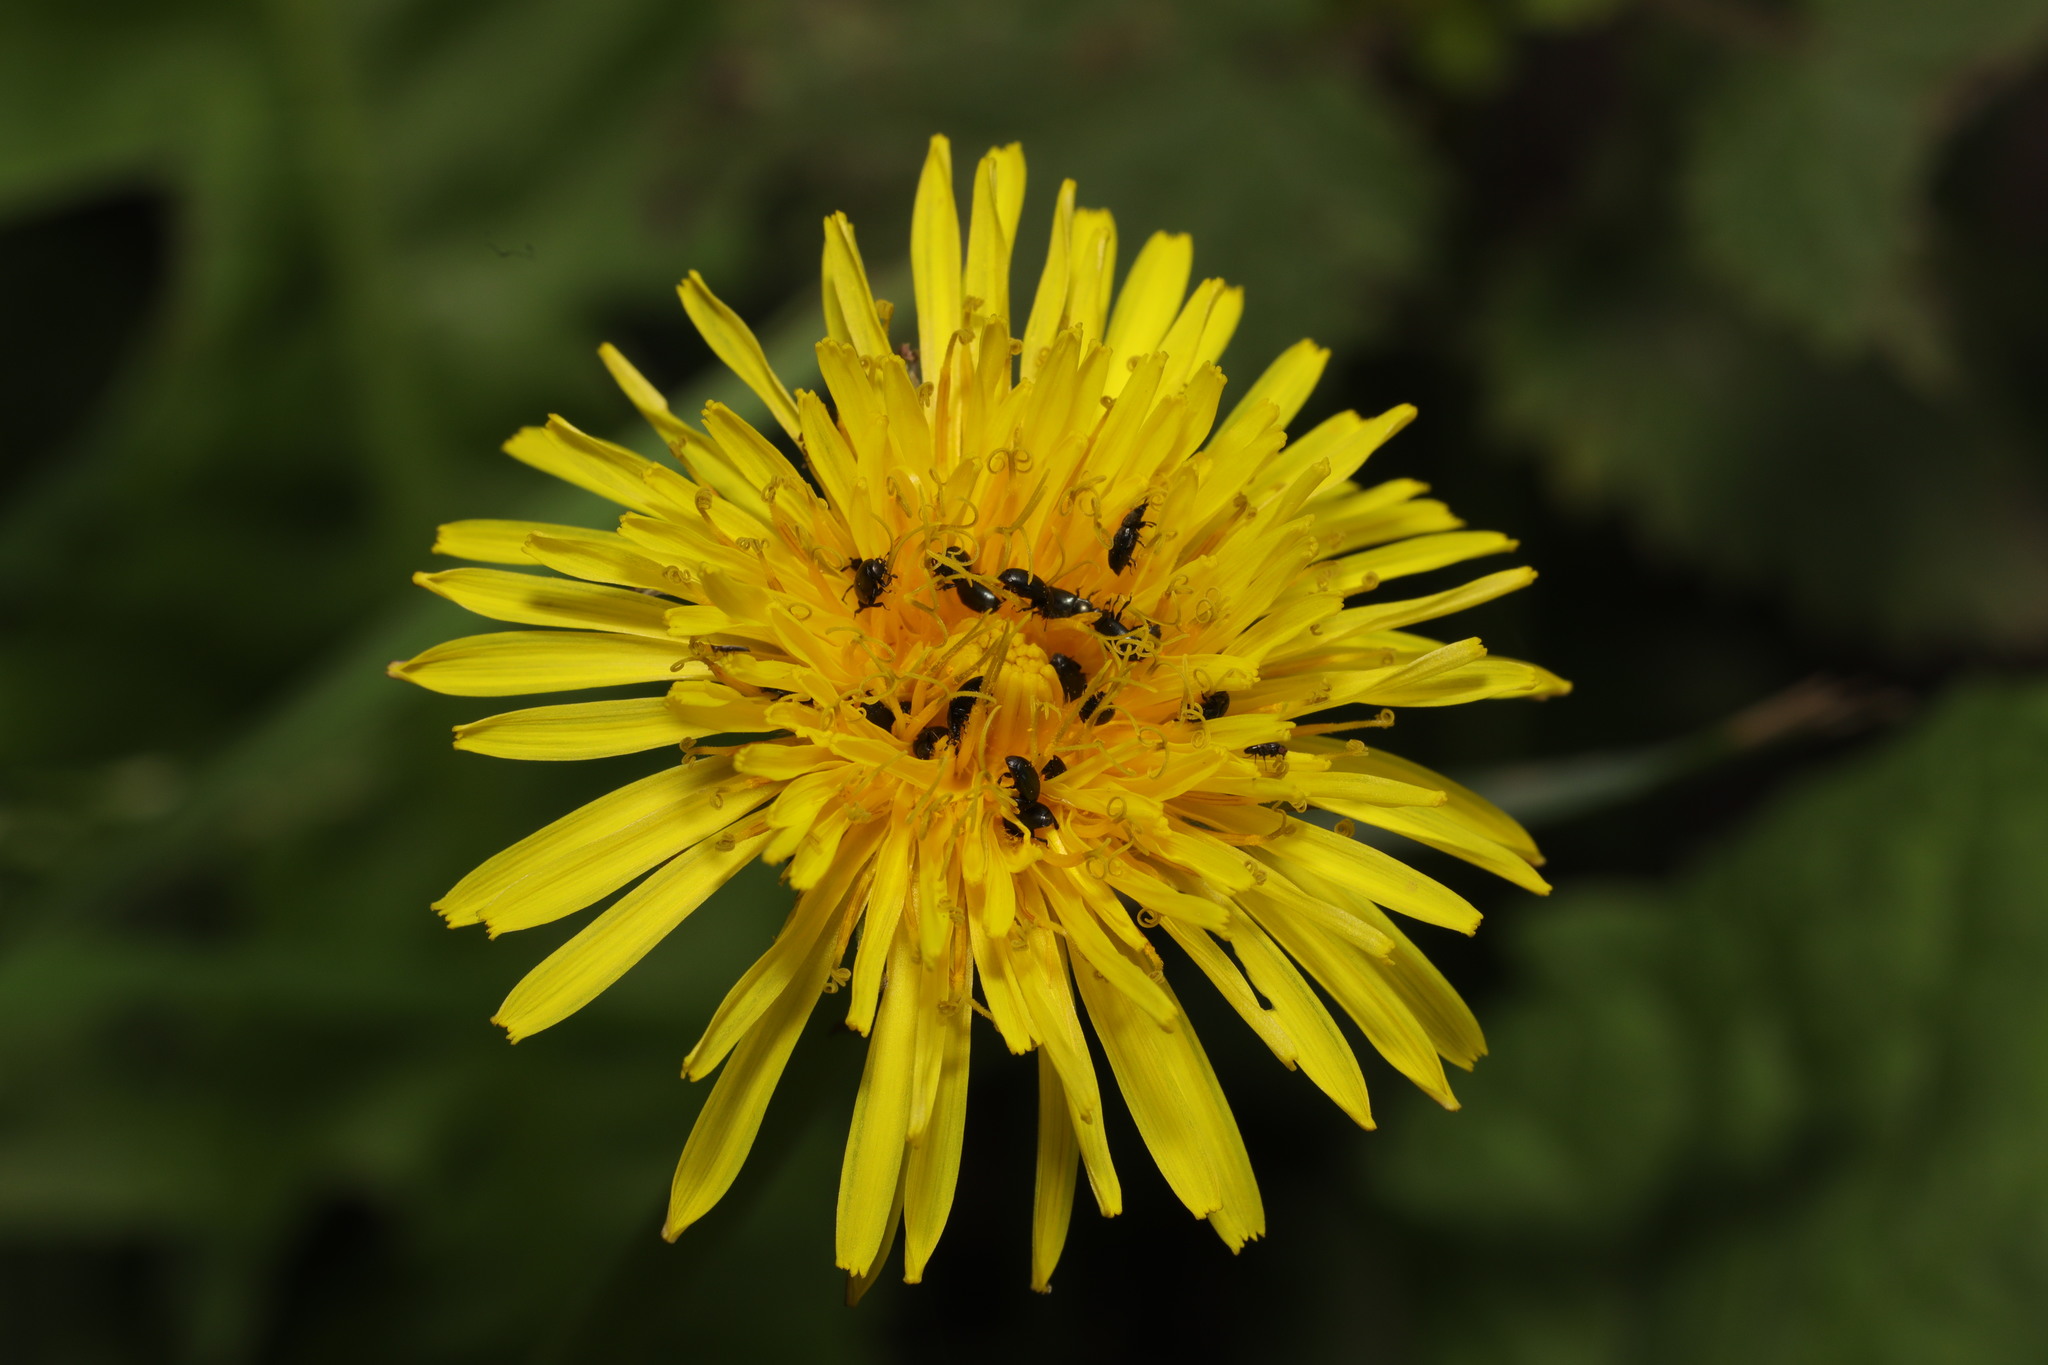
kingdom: Plantae
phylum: Tracheophyta
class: Magnoliopsida
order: Asterales
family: Asteraceae
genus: Taraxacum
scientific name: Taraxacum officinale
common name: Common dandelion
